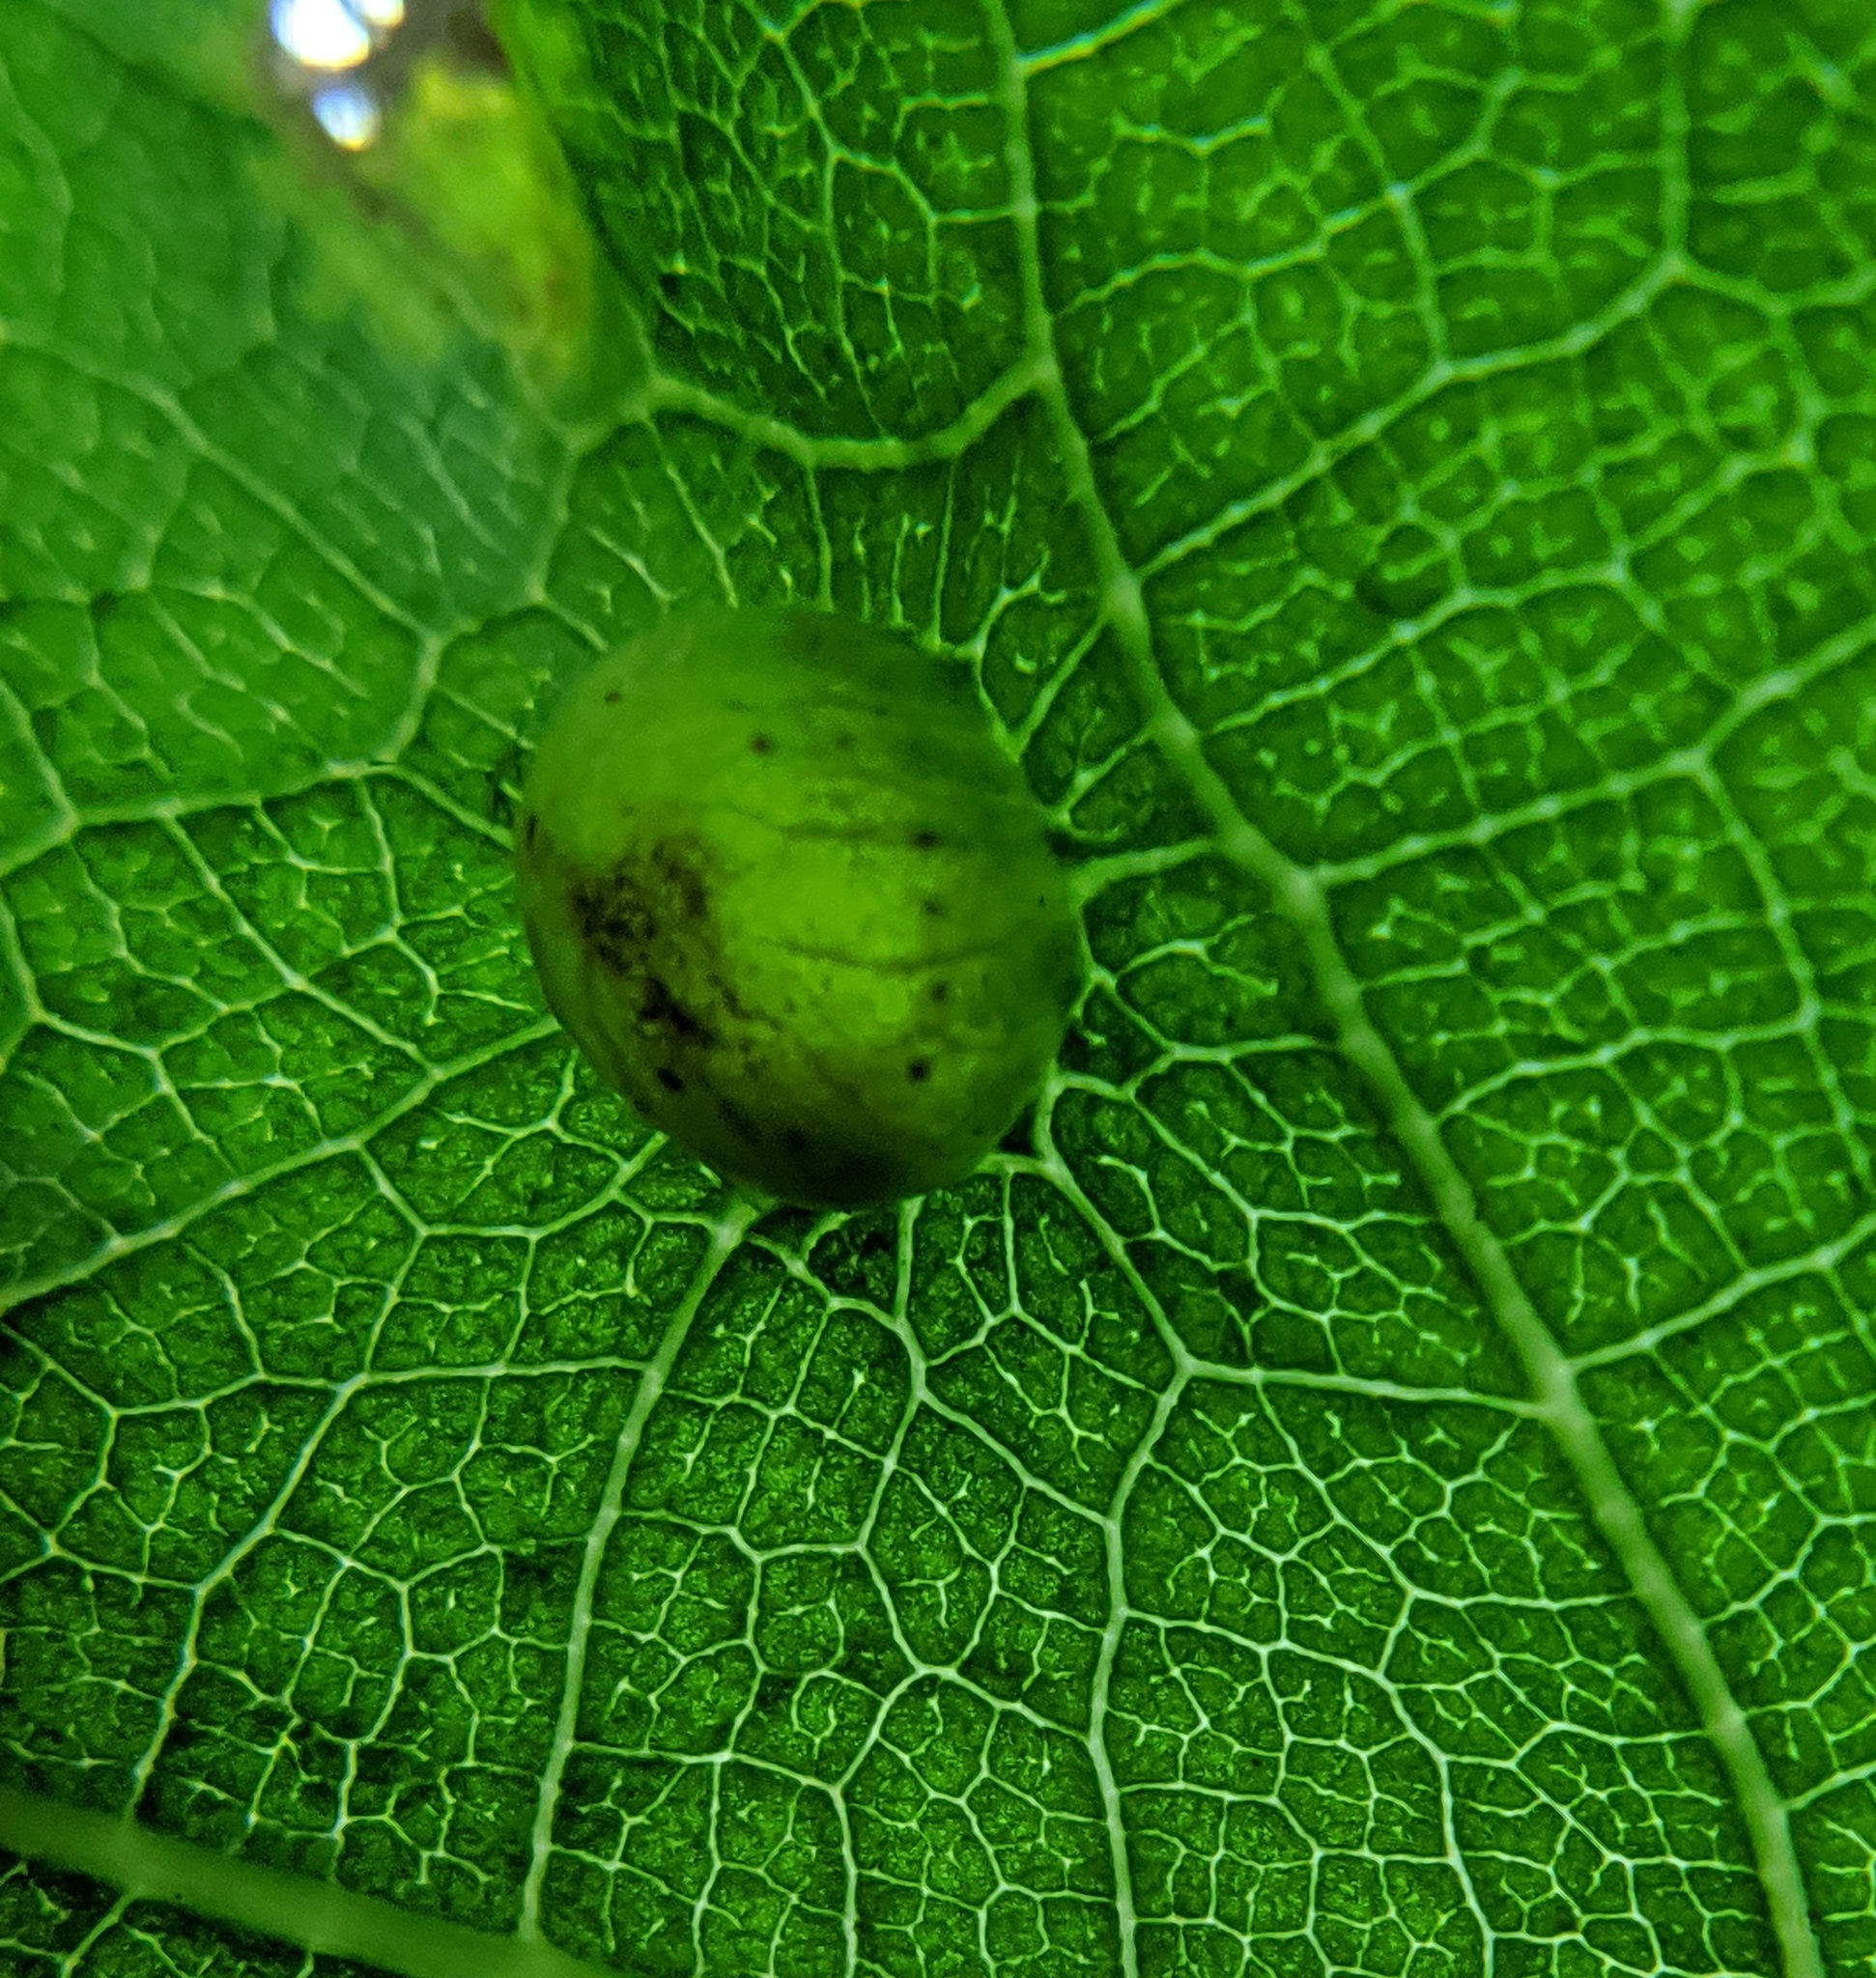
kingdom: Animalia
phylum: Arthropoda
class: Insecta
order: Hymenoptera
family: Cynipidae
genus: Dryocosmus
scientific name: Dryocosmus
